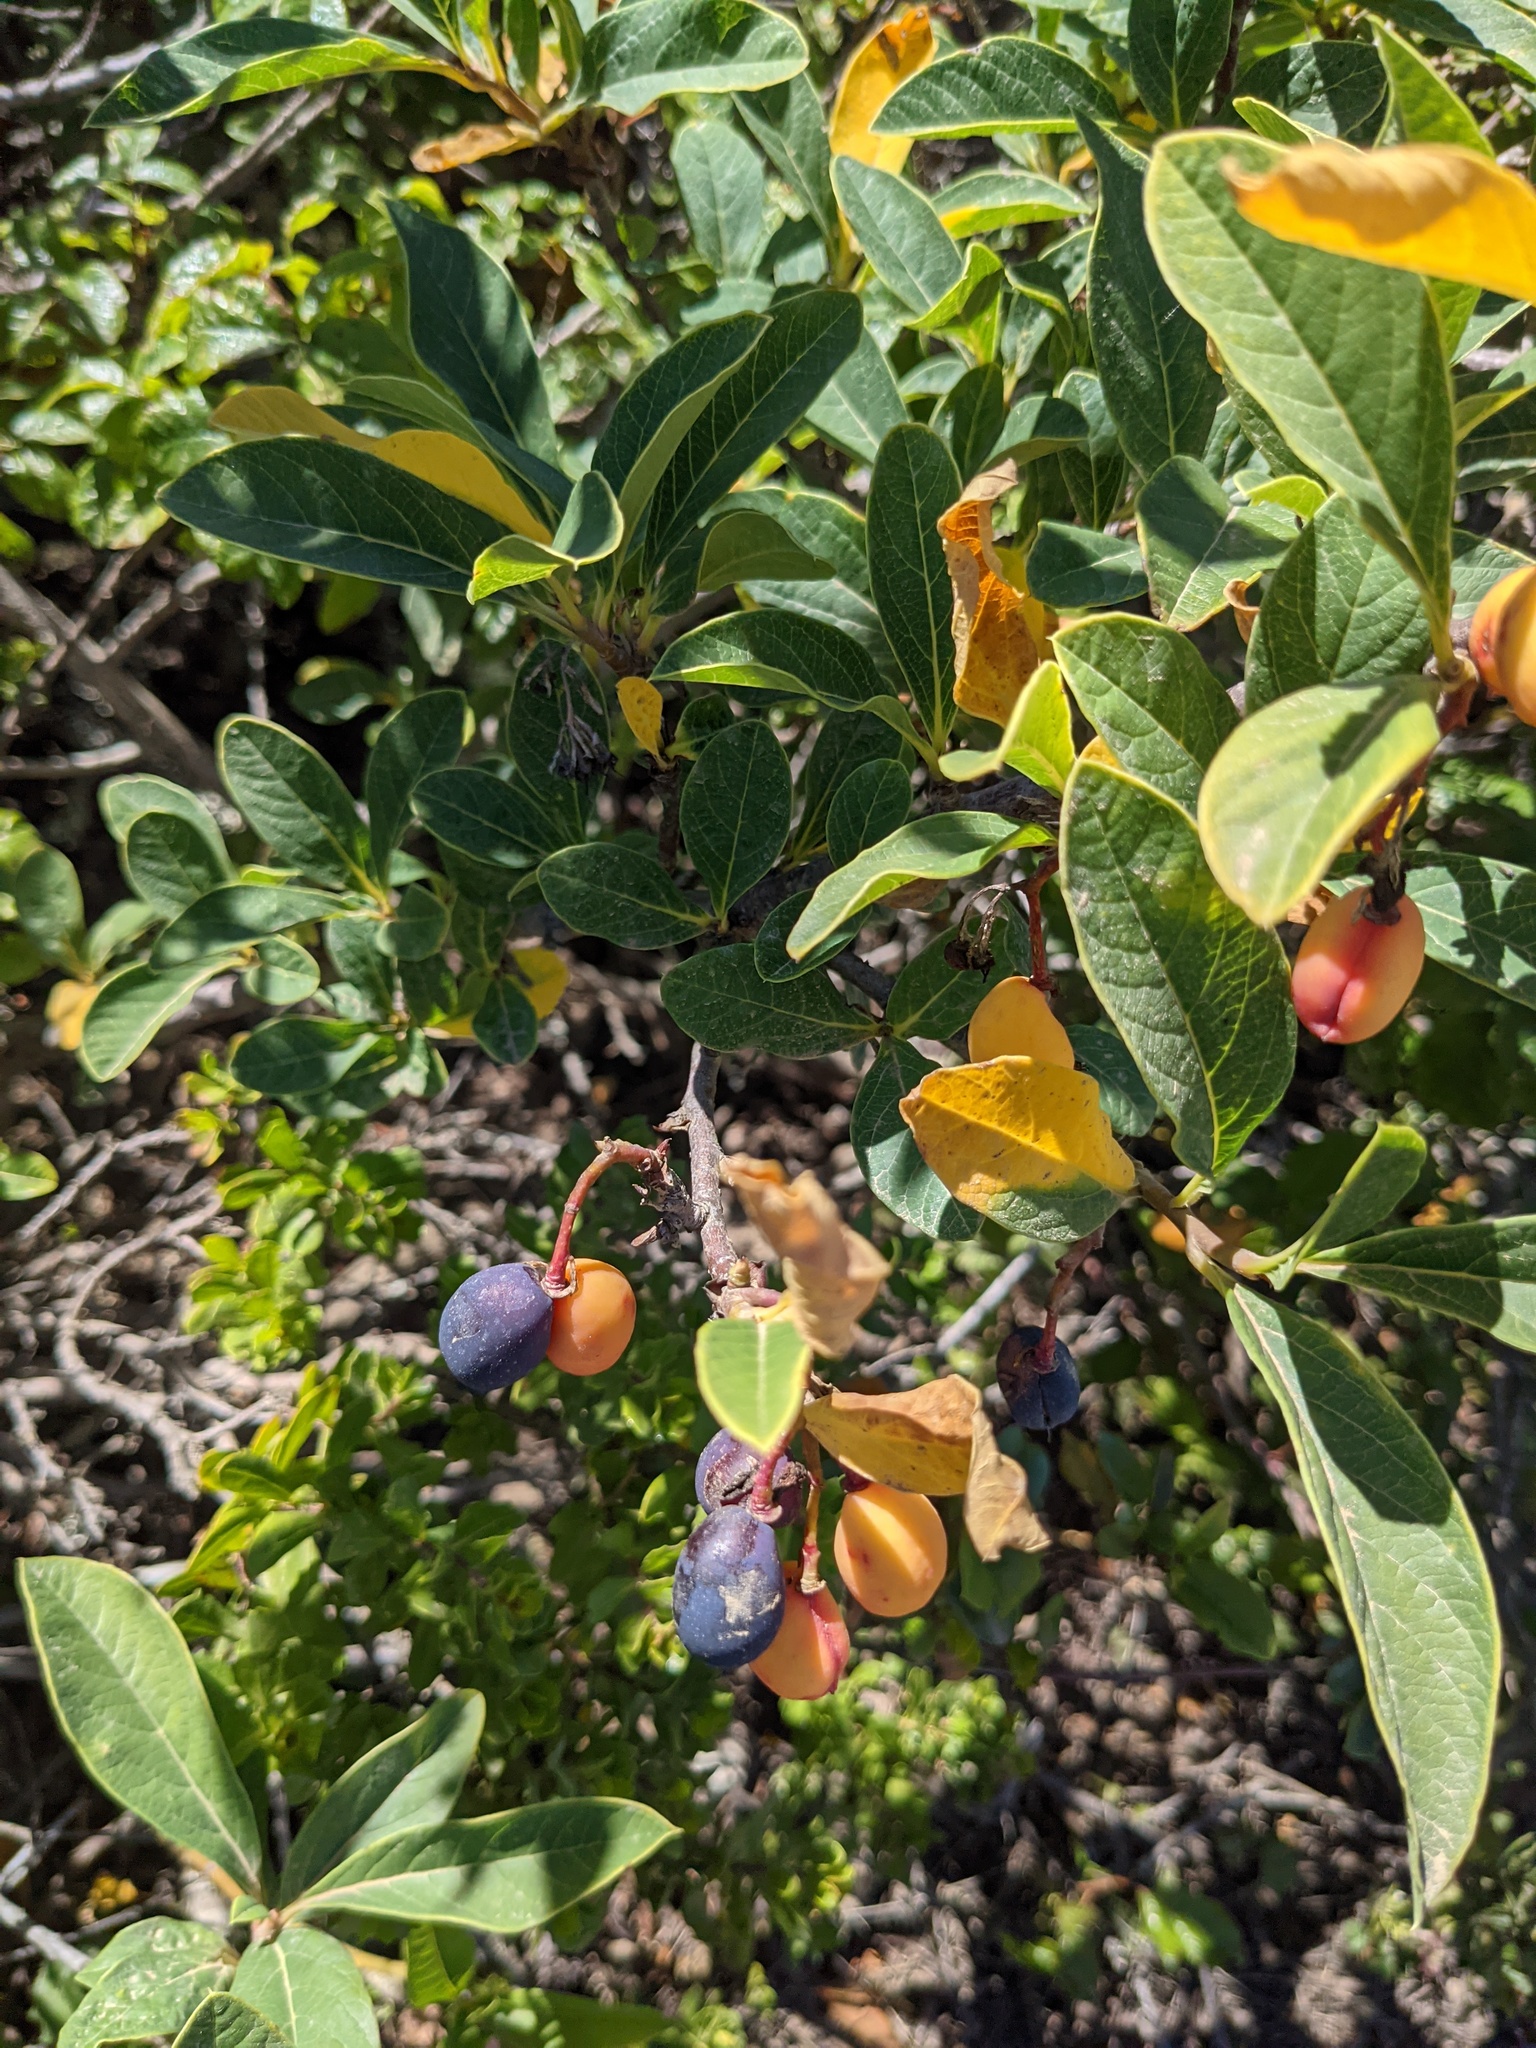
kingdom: Plantae
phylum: Tracheophyta
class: Magnoliopsida
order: Rosales
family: Rosaceae
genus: Oemleria
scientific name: Oemleria cerasiformis
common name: Osoberry
